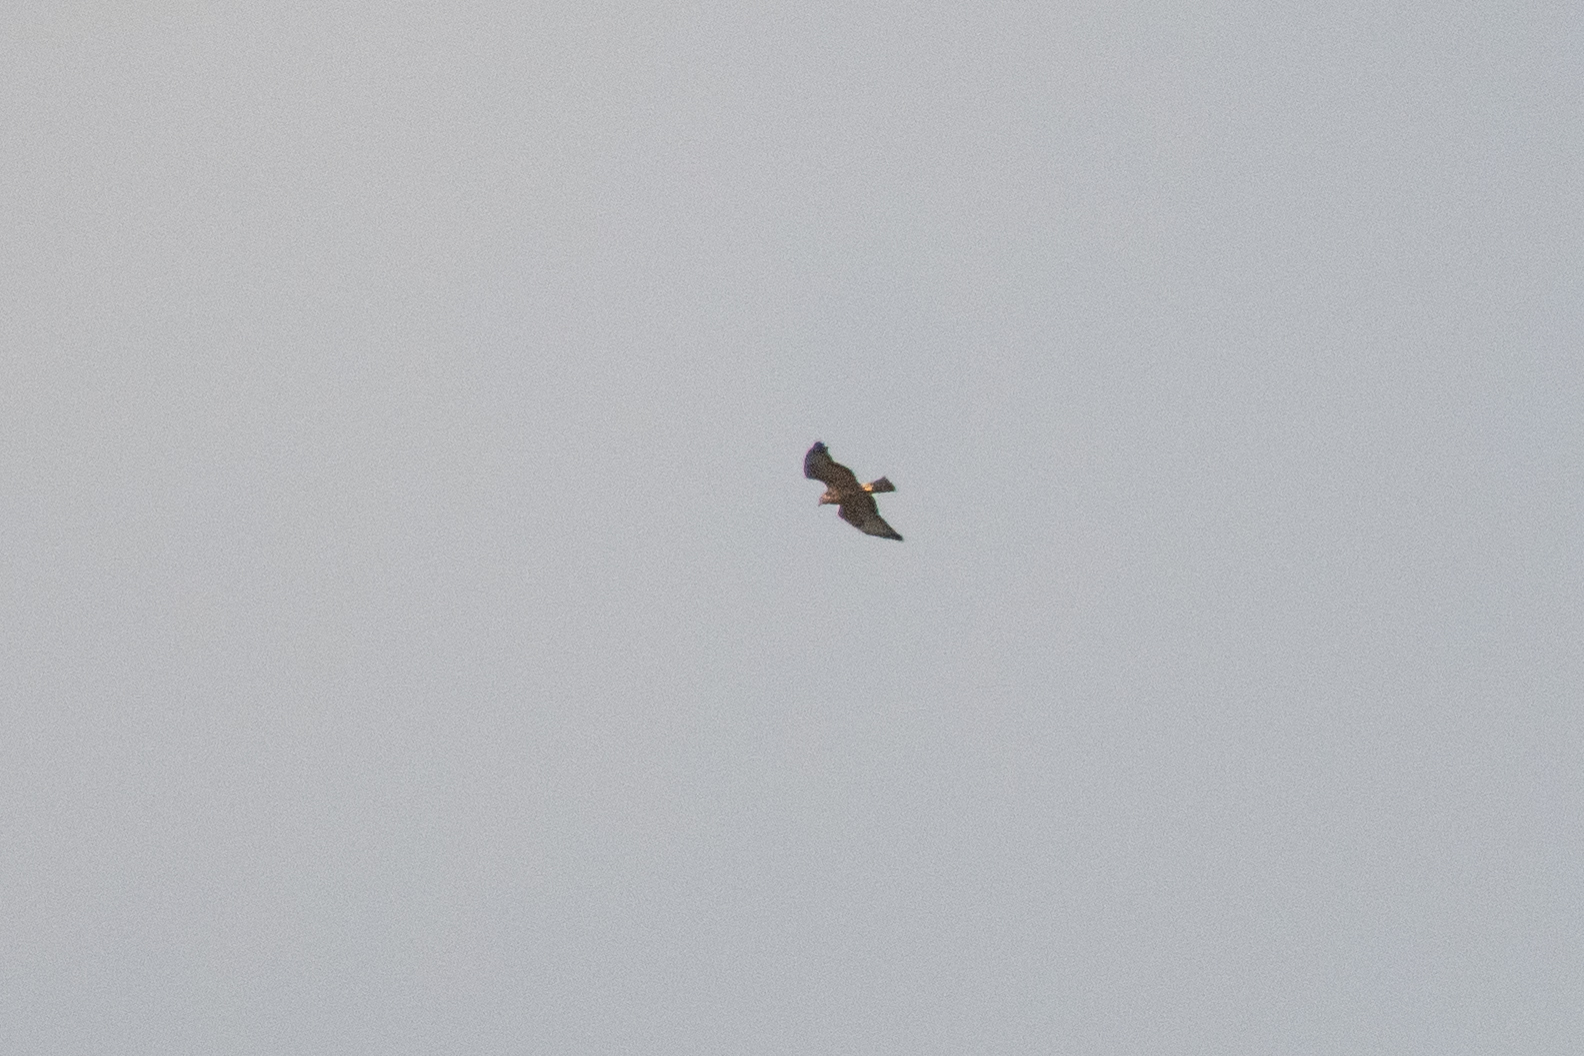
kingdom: Animalia
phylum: Chordata
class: Aves
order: Accipitriformes
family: Accipitridae
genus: Buteo
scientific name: Buteo buteo
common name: Common buzzard
